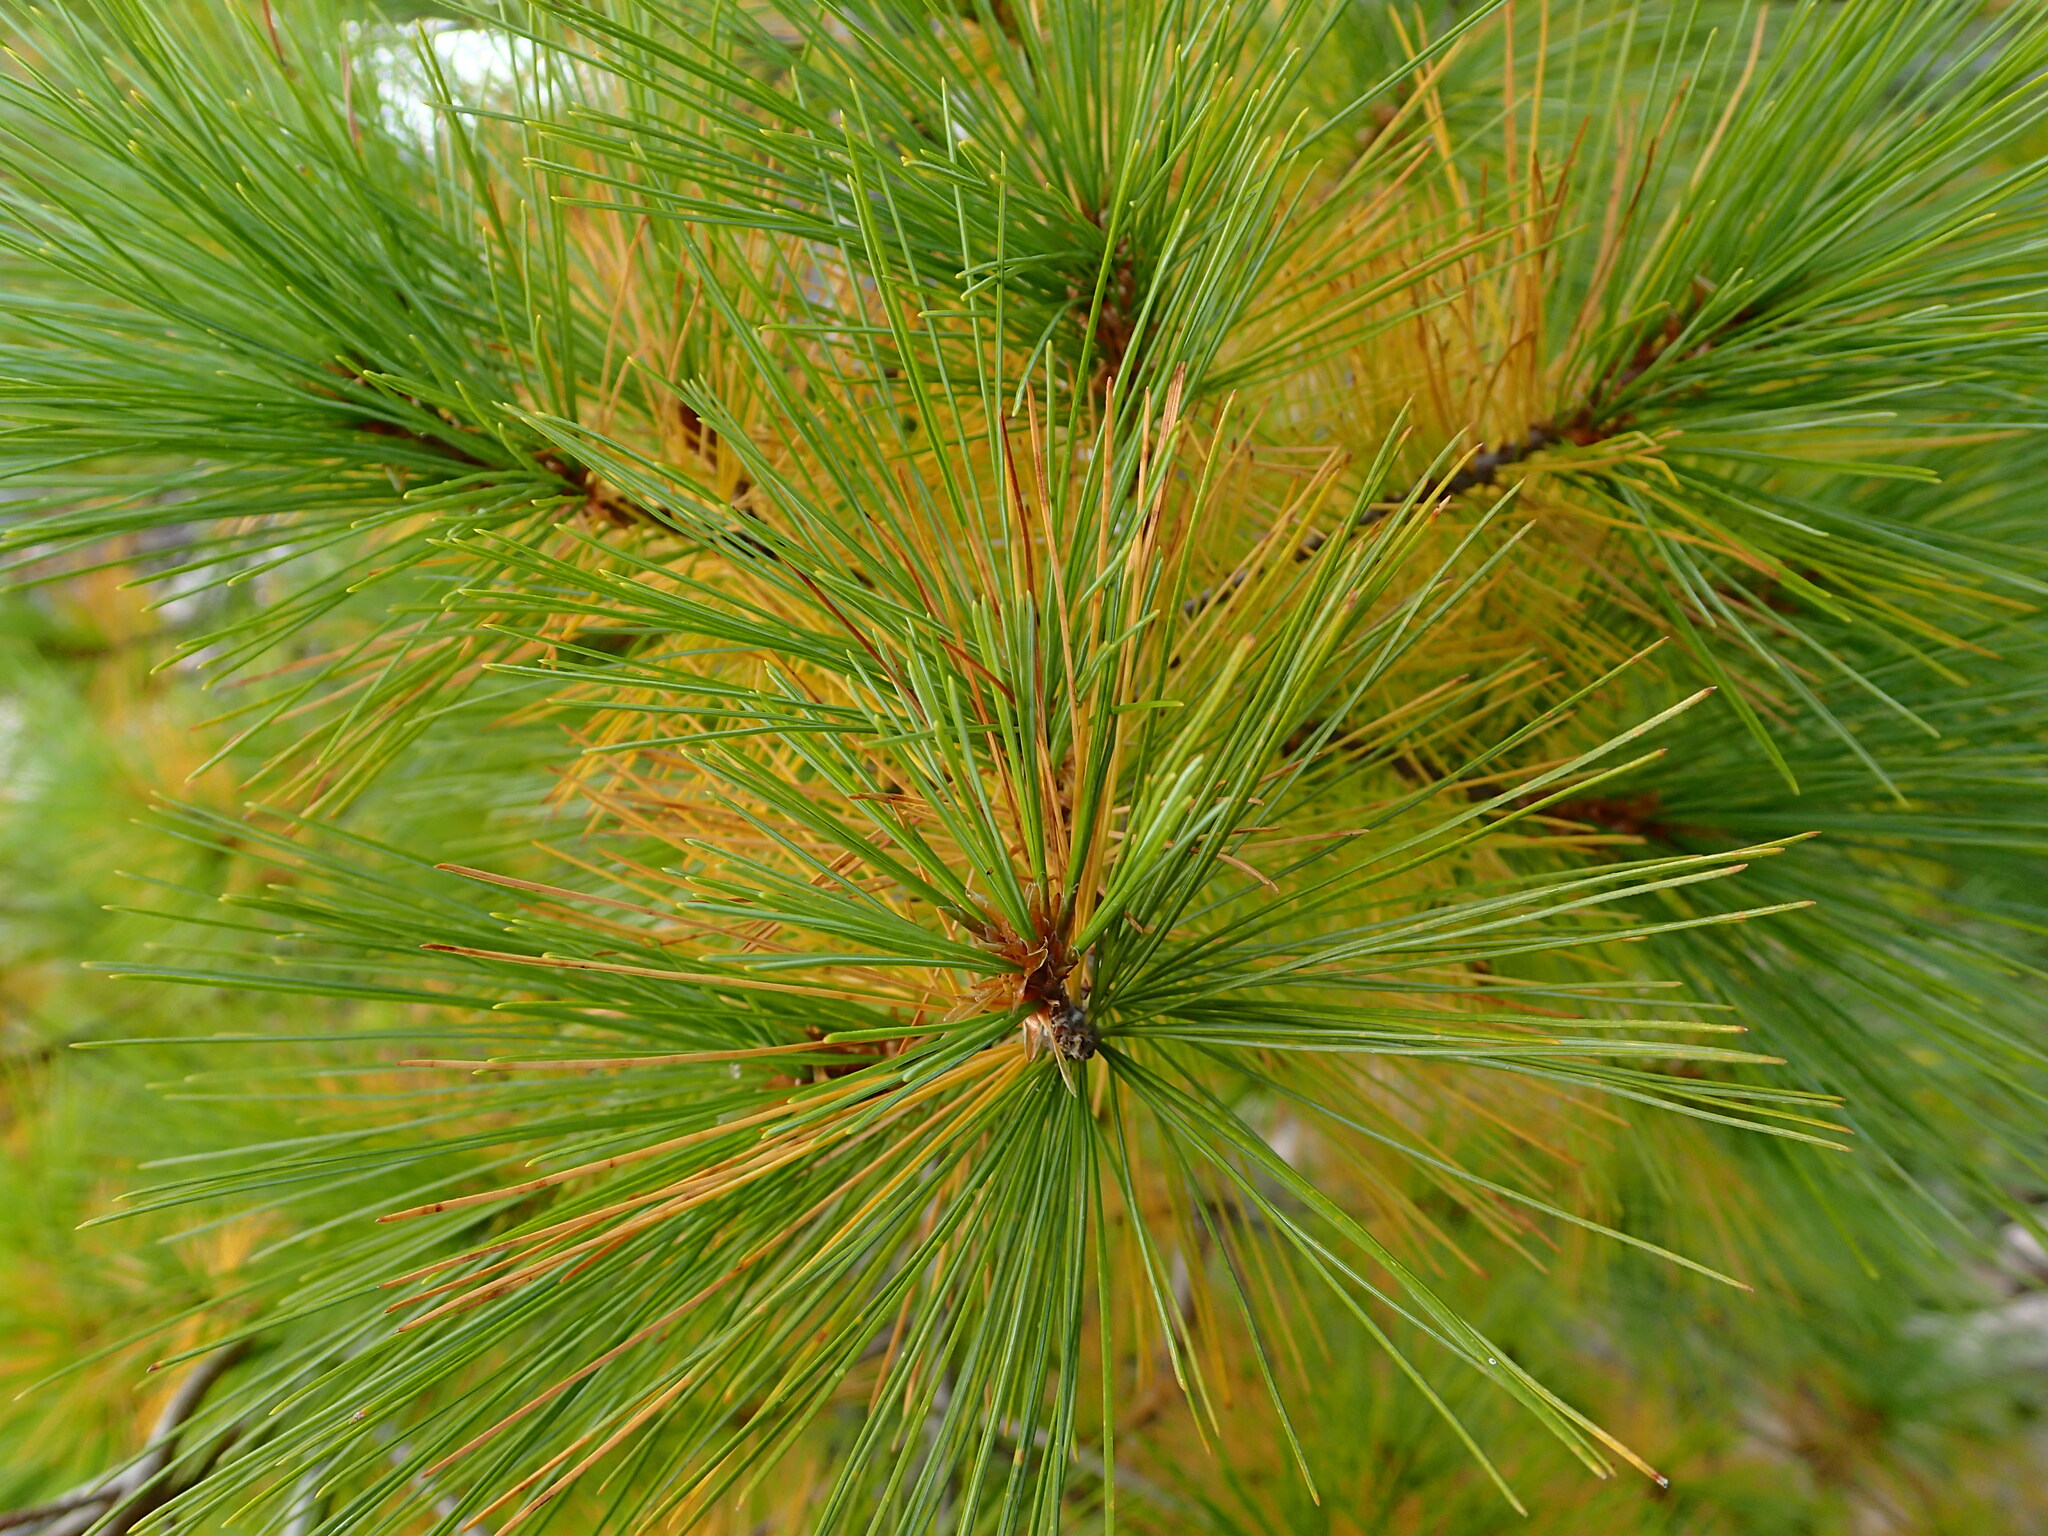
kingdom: Plantae
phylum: Tracheophyta
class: Pinopsida
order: Pinales
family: Pinaceae
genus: Pinus
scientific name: Pinus strobus
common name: Weymouth pine
